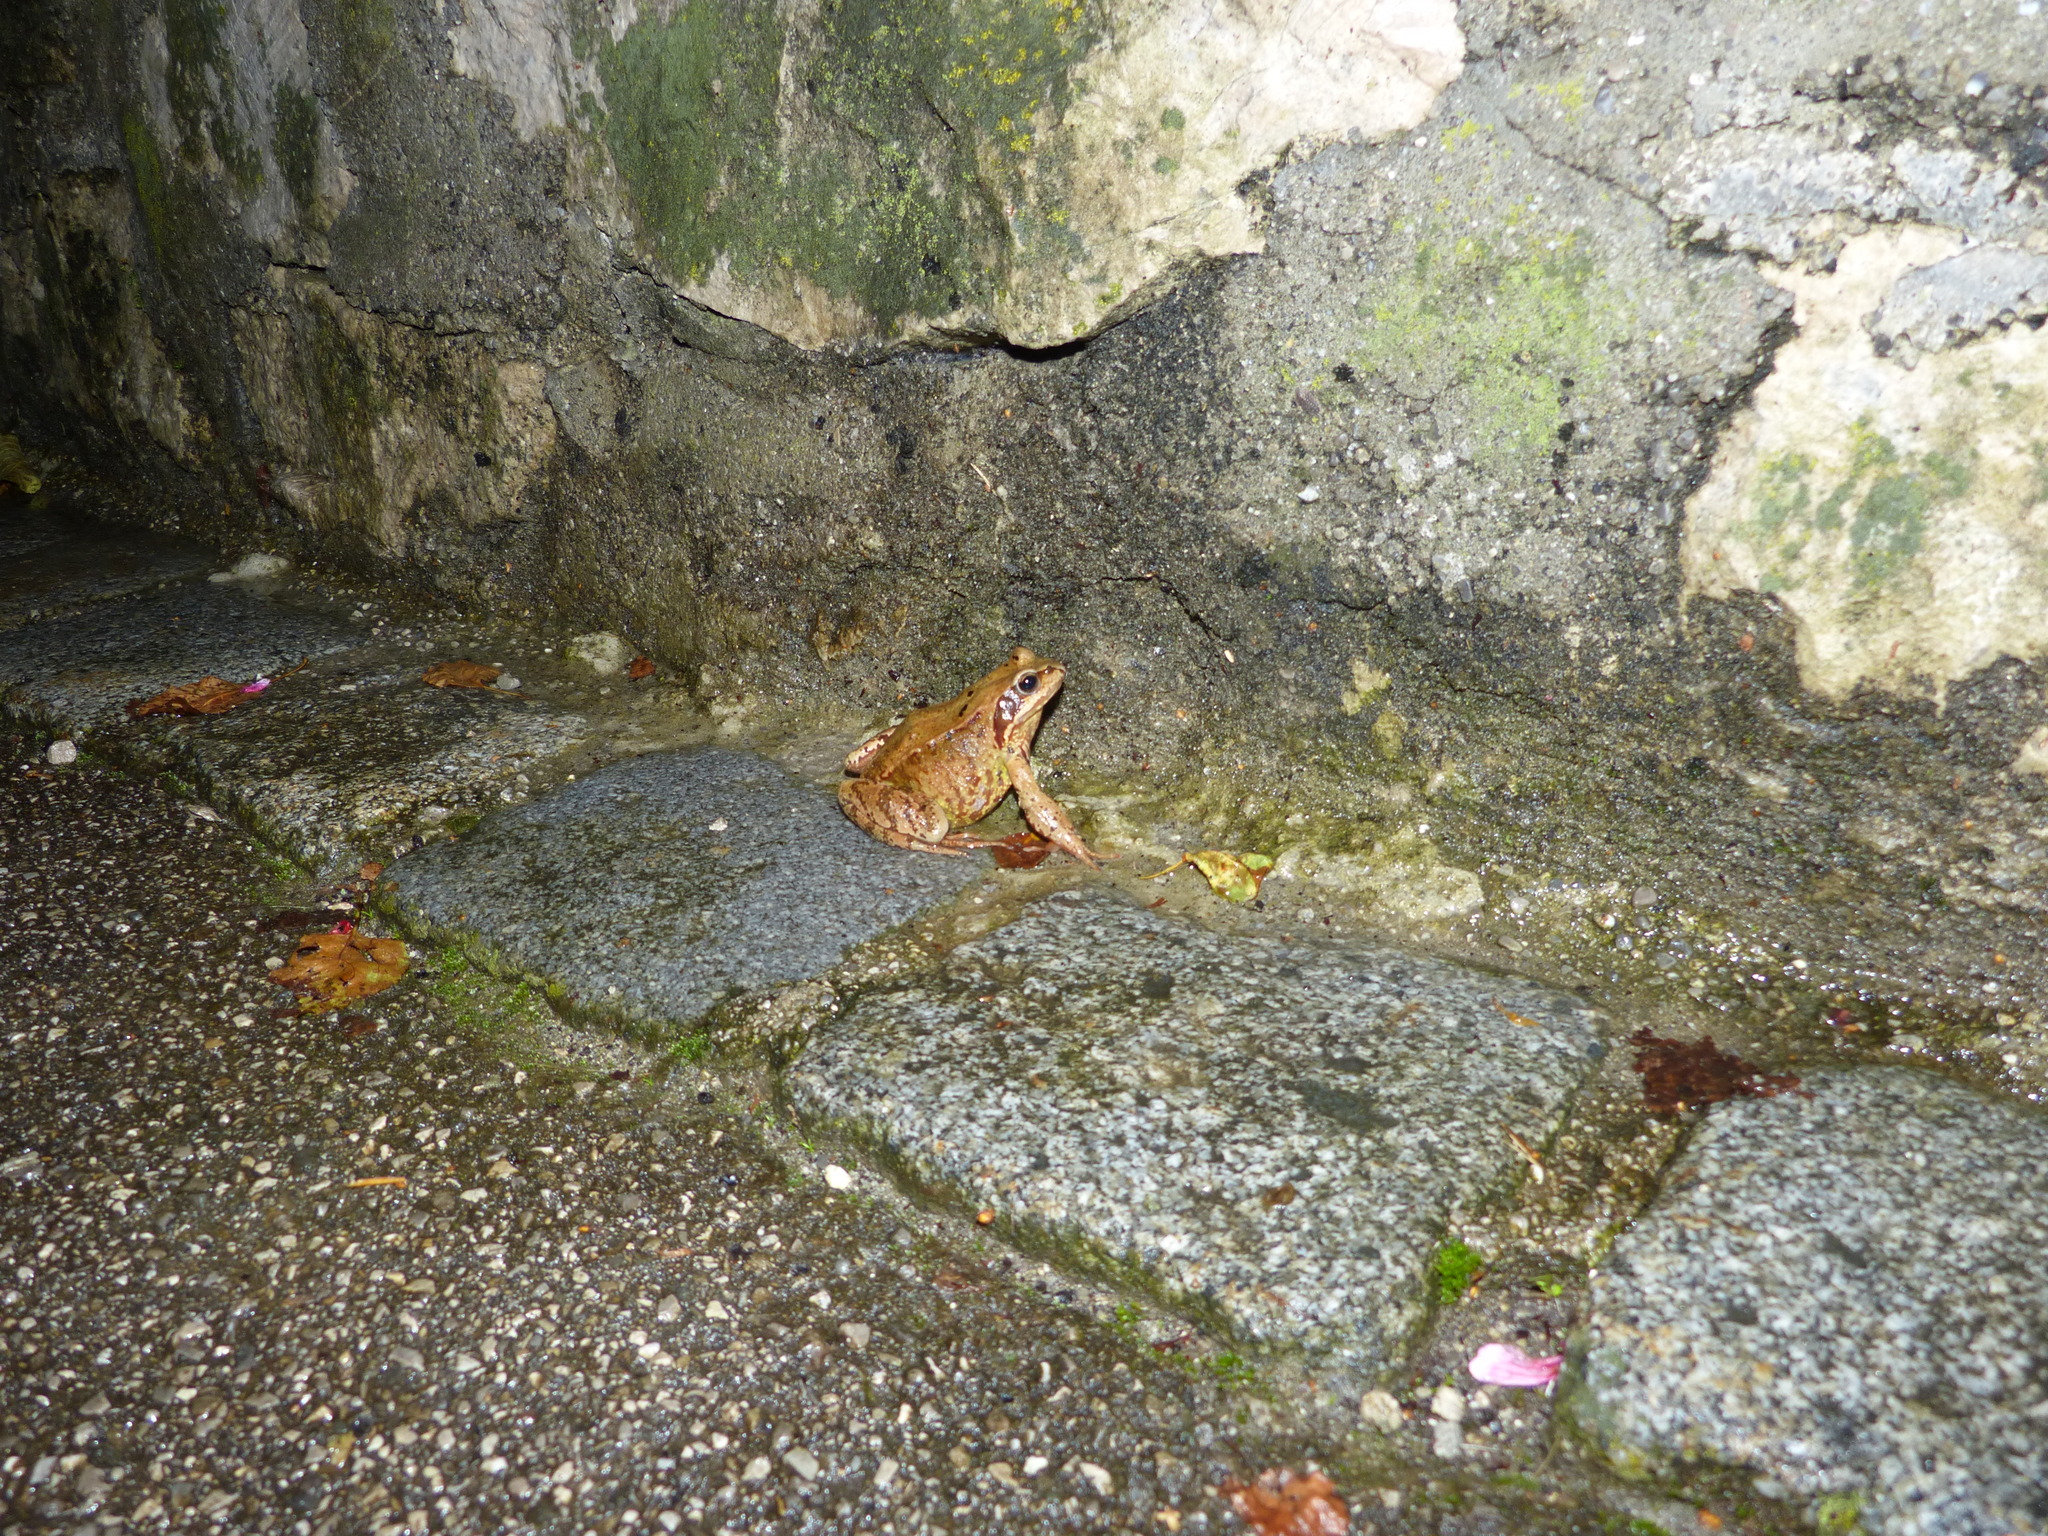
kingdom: Animalia
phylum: Chordata
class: Amphibia
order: Anura
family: Ranidae
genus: Rana
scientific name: Rana temporaria
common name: Common frog
